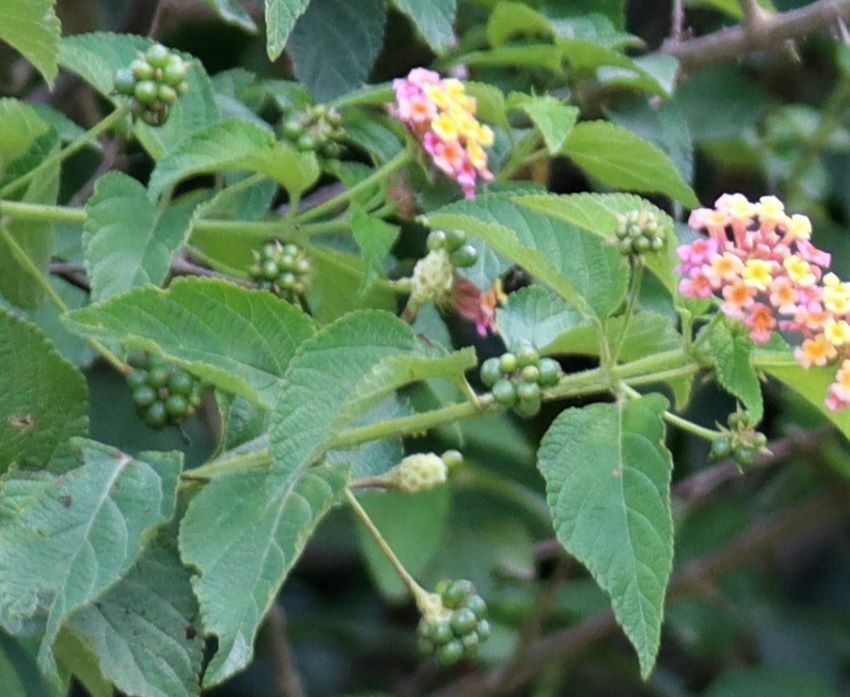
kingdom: Plantae
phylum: Tracheophyta
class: Magnoliopsida
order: Lamiales
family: Verbenaceae
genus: Lantana
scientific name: Lantana camara
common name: Lantana
